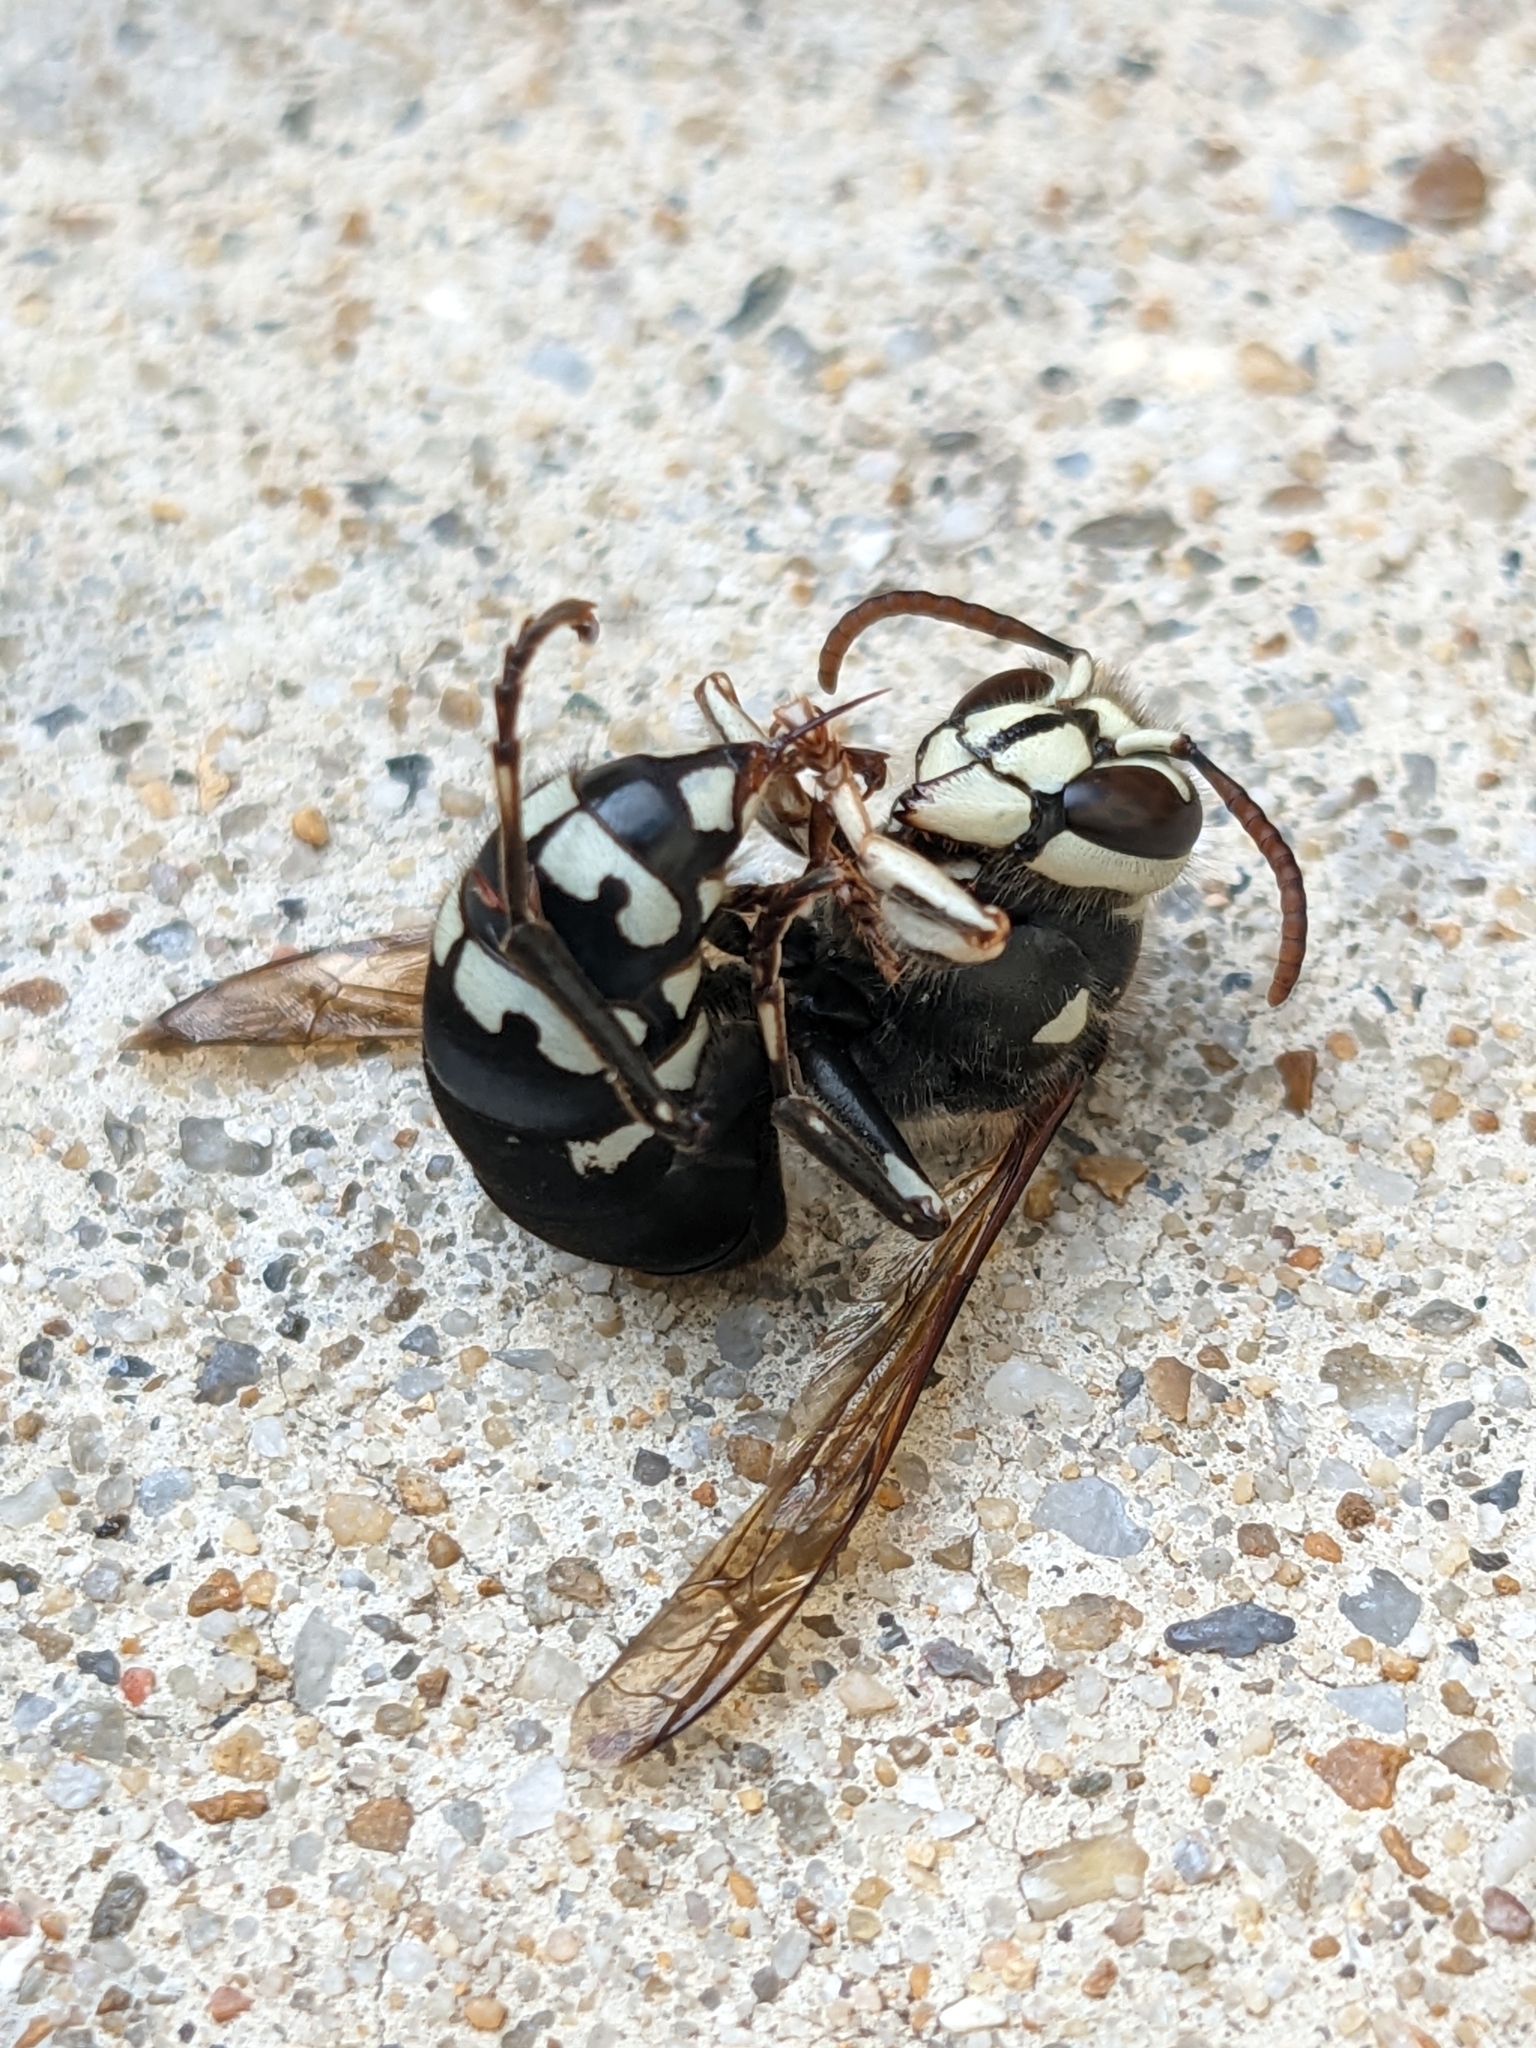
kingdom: Animalia
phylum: Arthropoda
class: Insecta
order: Hymenoptera
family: Vespidae
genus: Dolichovespula
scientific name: Dolichovespula maculata
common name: Bald-faced hornet
